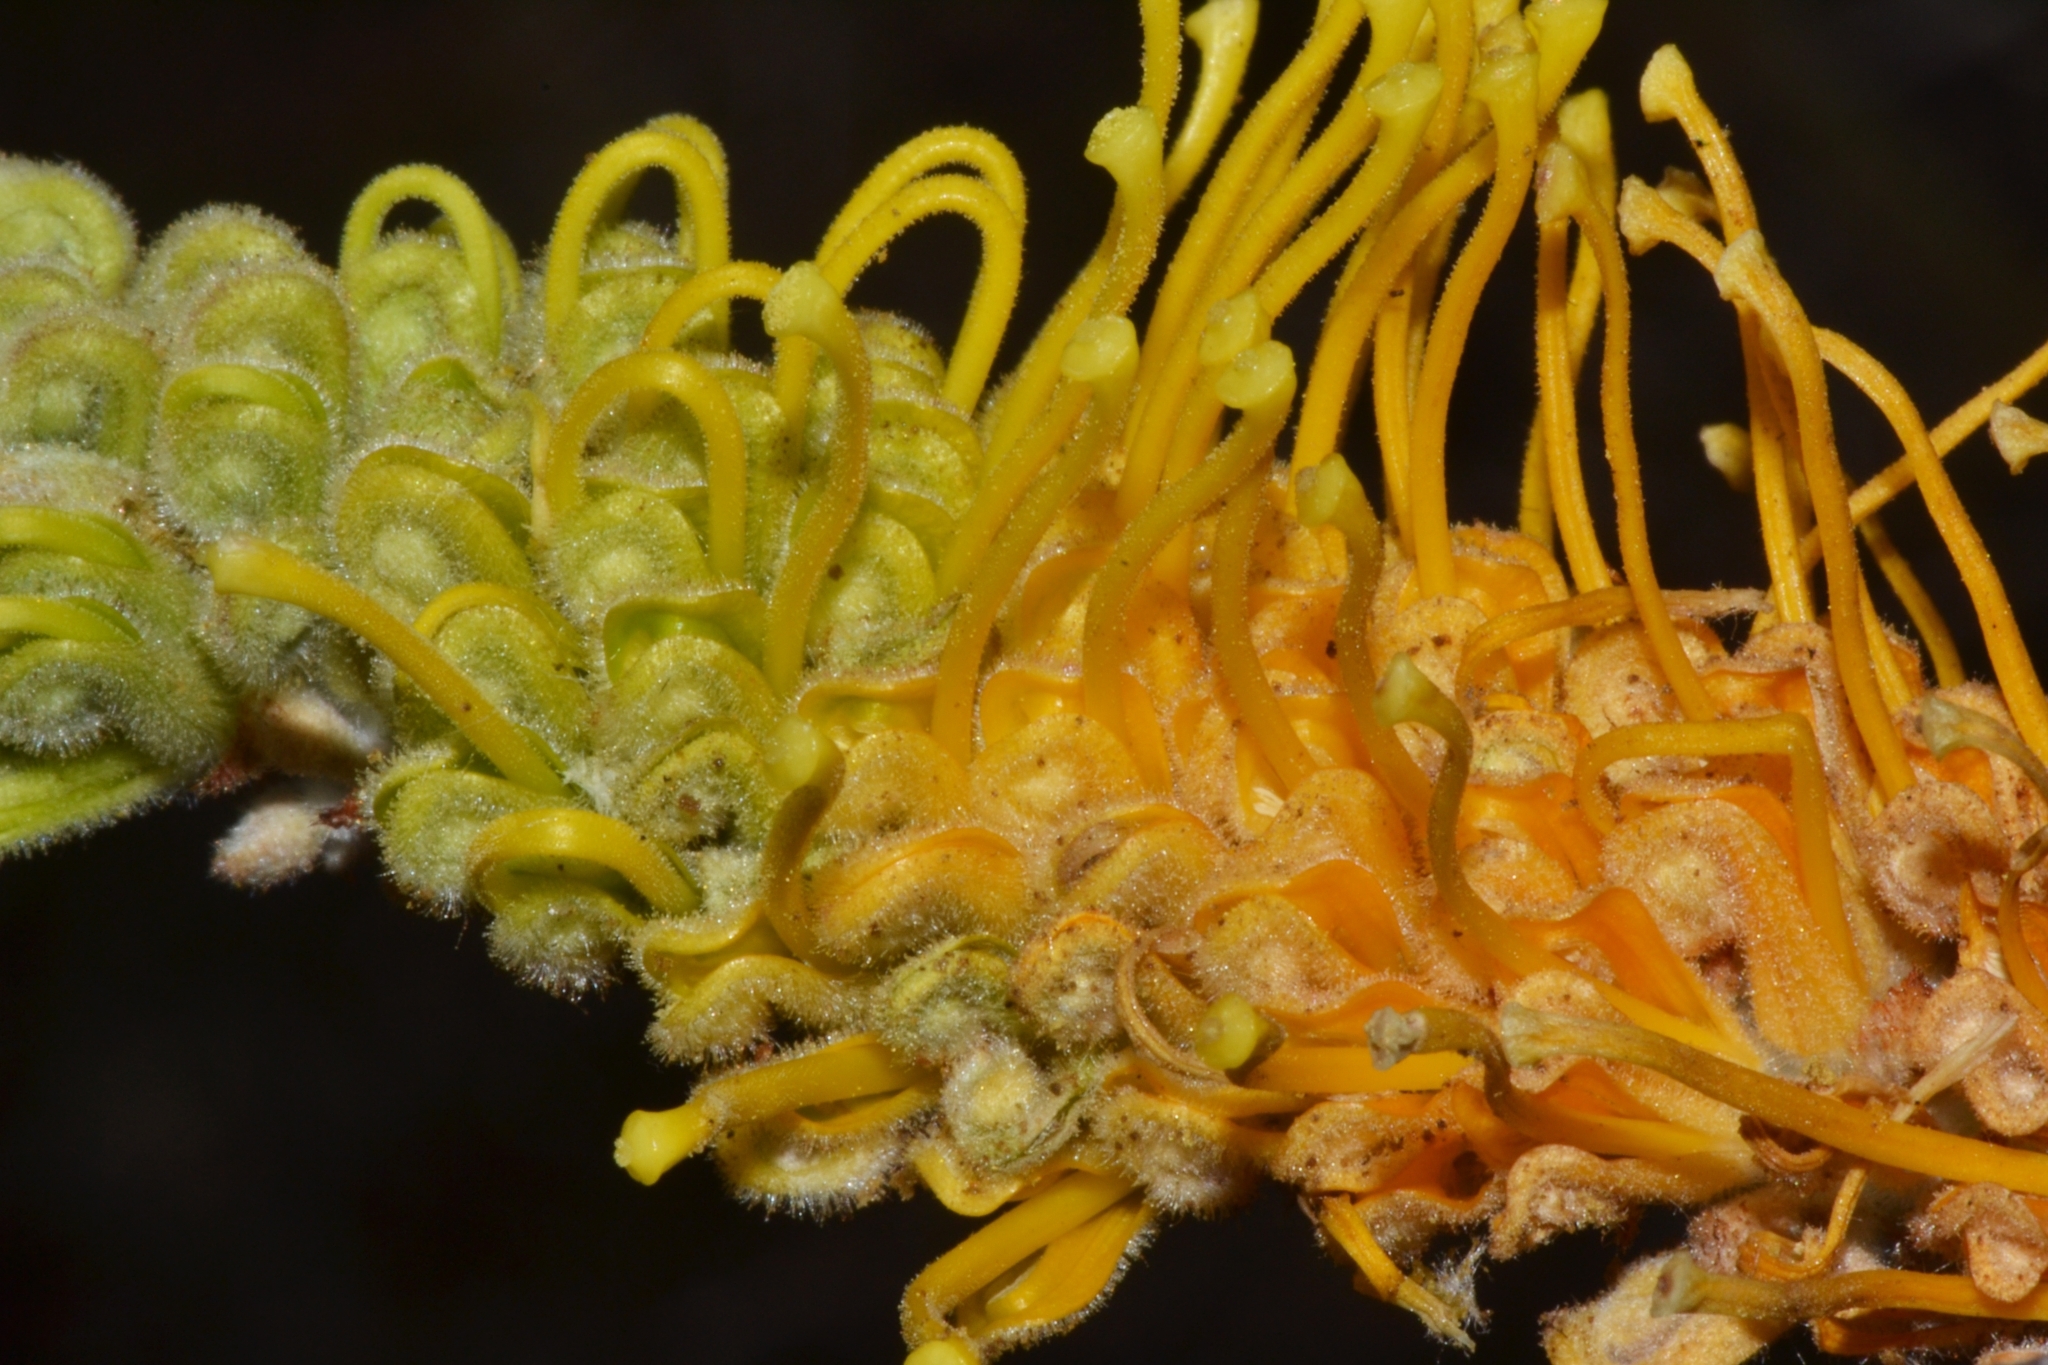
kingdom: Plantae
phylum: Tracheophyta
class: Magnoliopsida
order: Proteales
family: Proteaceae
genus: Grevillea
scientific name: Grevillea eriostachya
